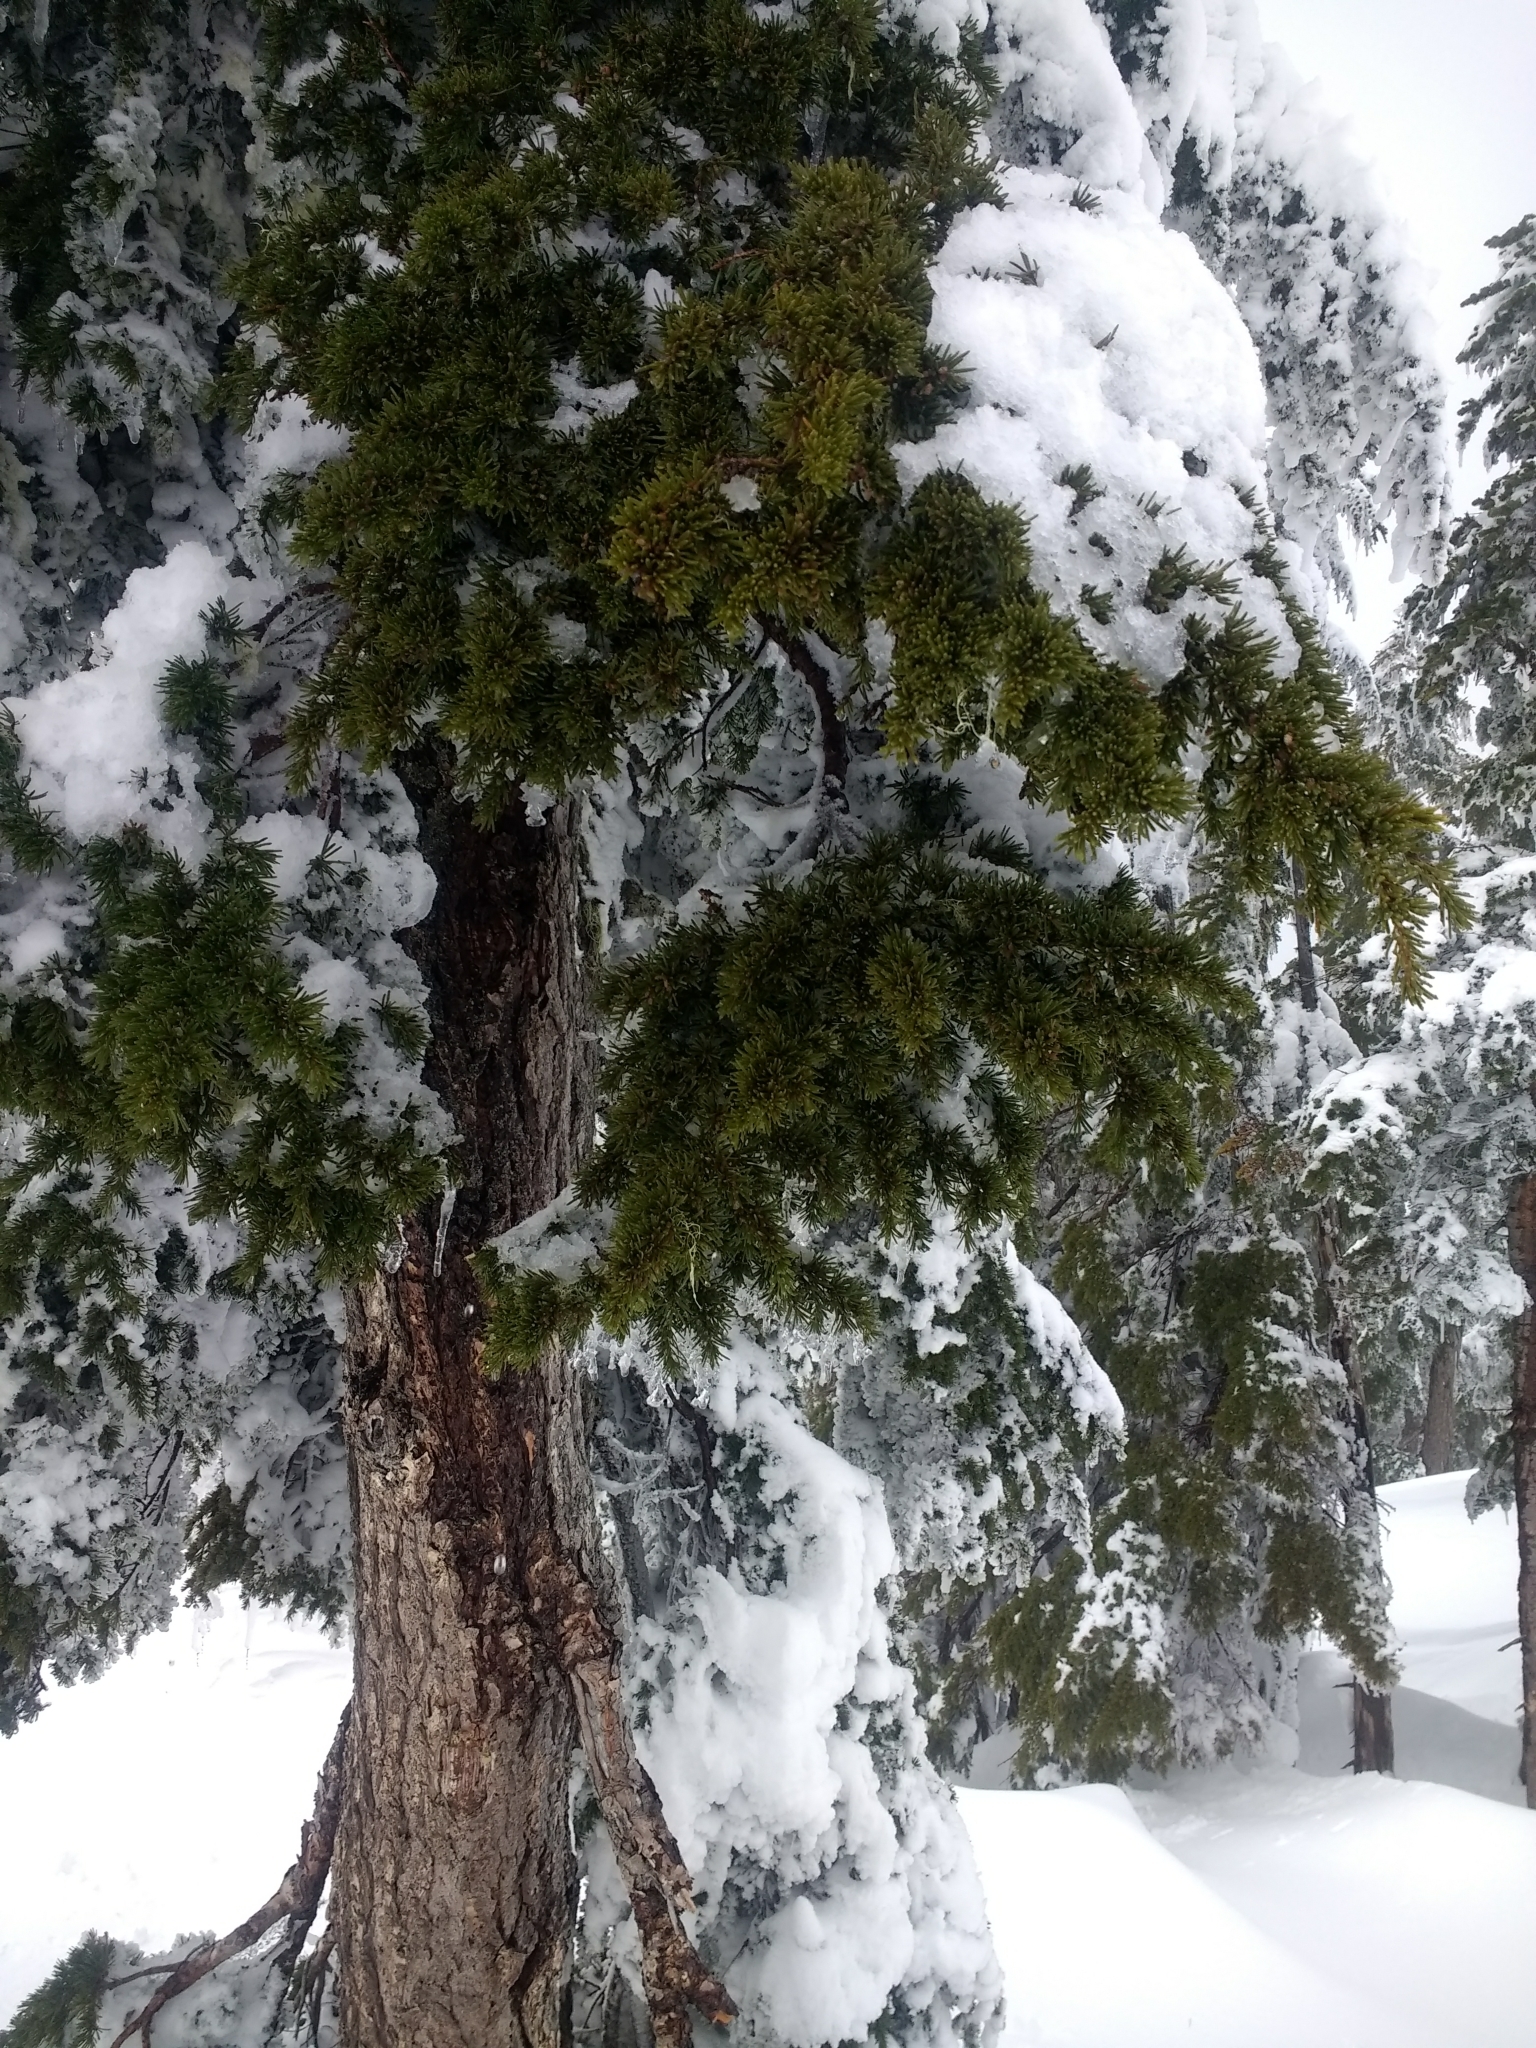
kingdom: Plantae
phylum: Tracheophyta
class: Pinopsida
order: Pinales
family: Pinaceae
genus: Tsuga
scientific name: Tsuga mertensiana
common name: Mountain hemlock
